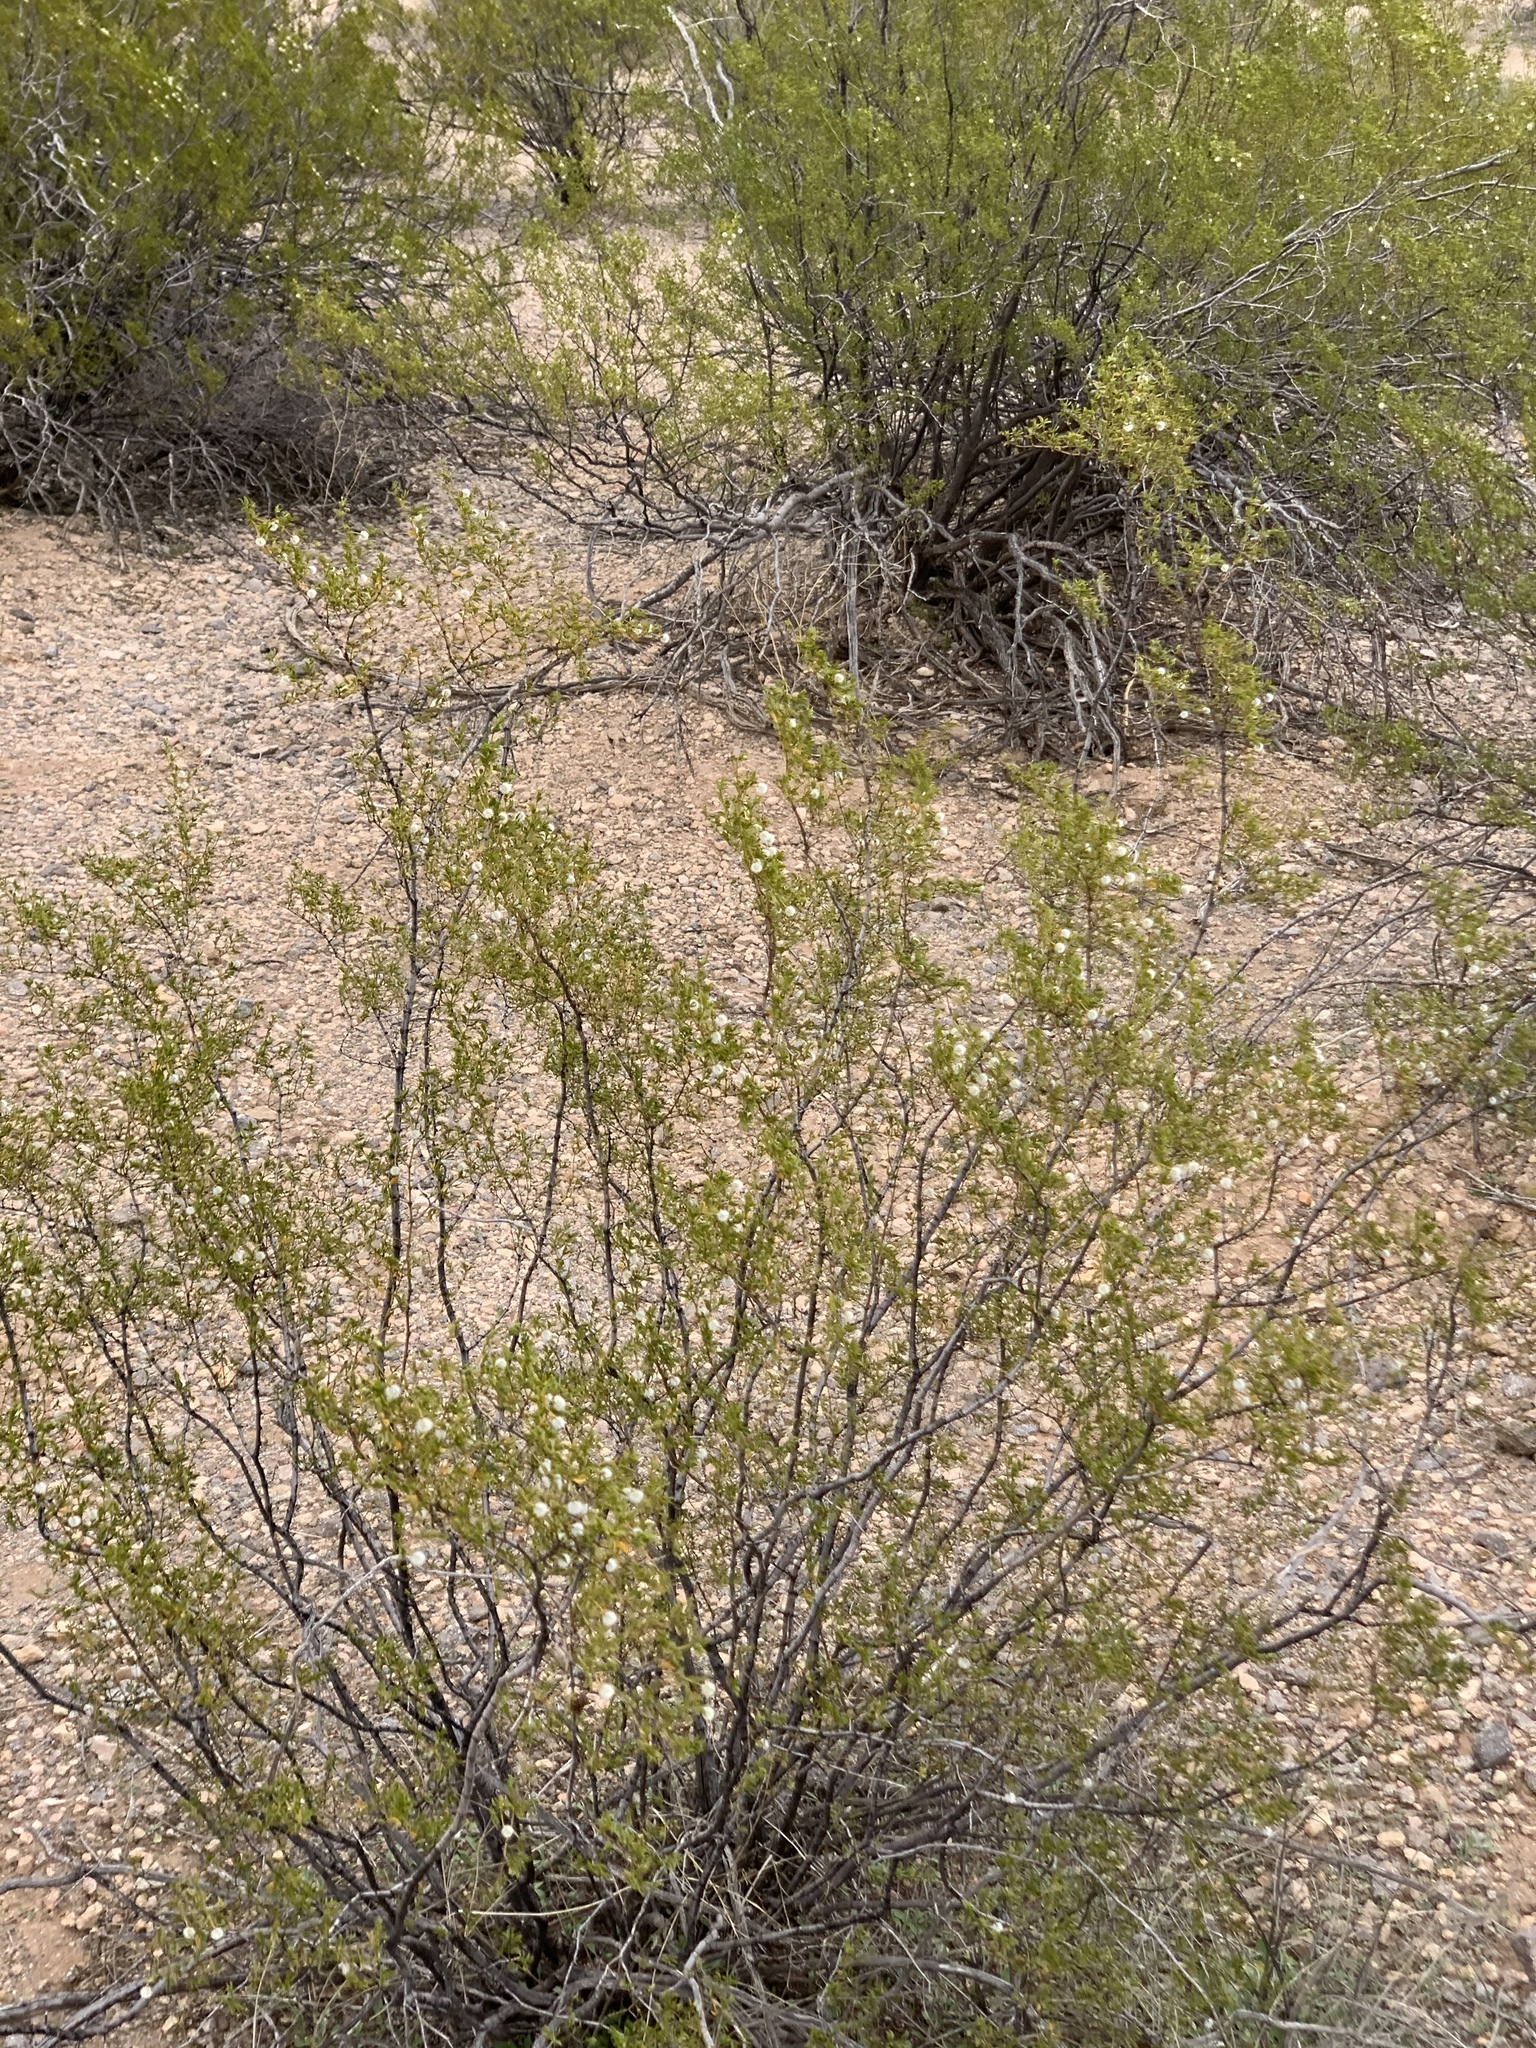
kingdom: Plantae
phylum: Tracheophyta
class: Magnoliopsida
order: Zygophyllales
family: Zygophyllaceae
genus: Larrea
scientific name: Larrea tridentata
